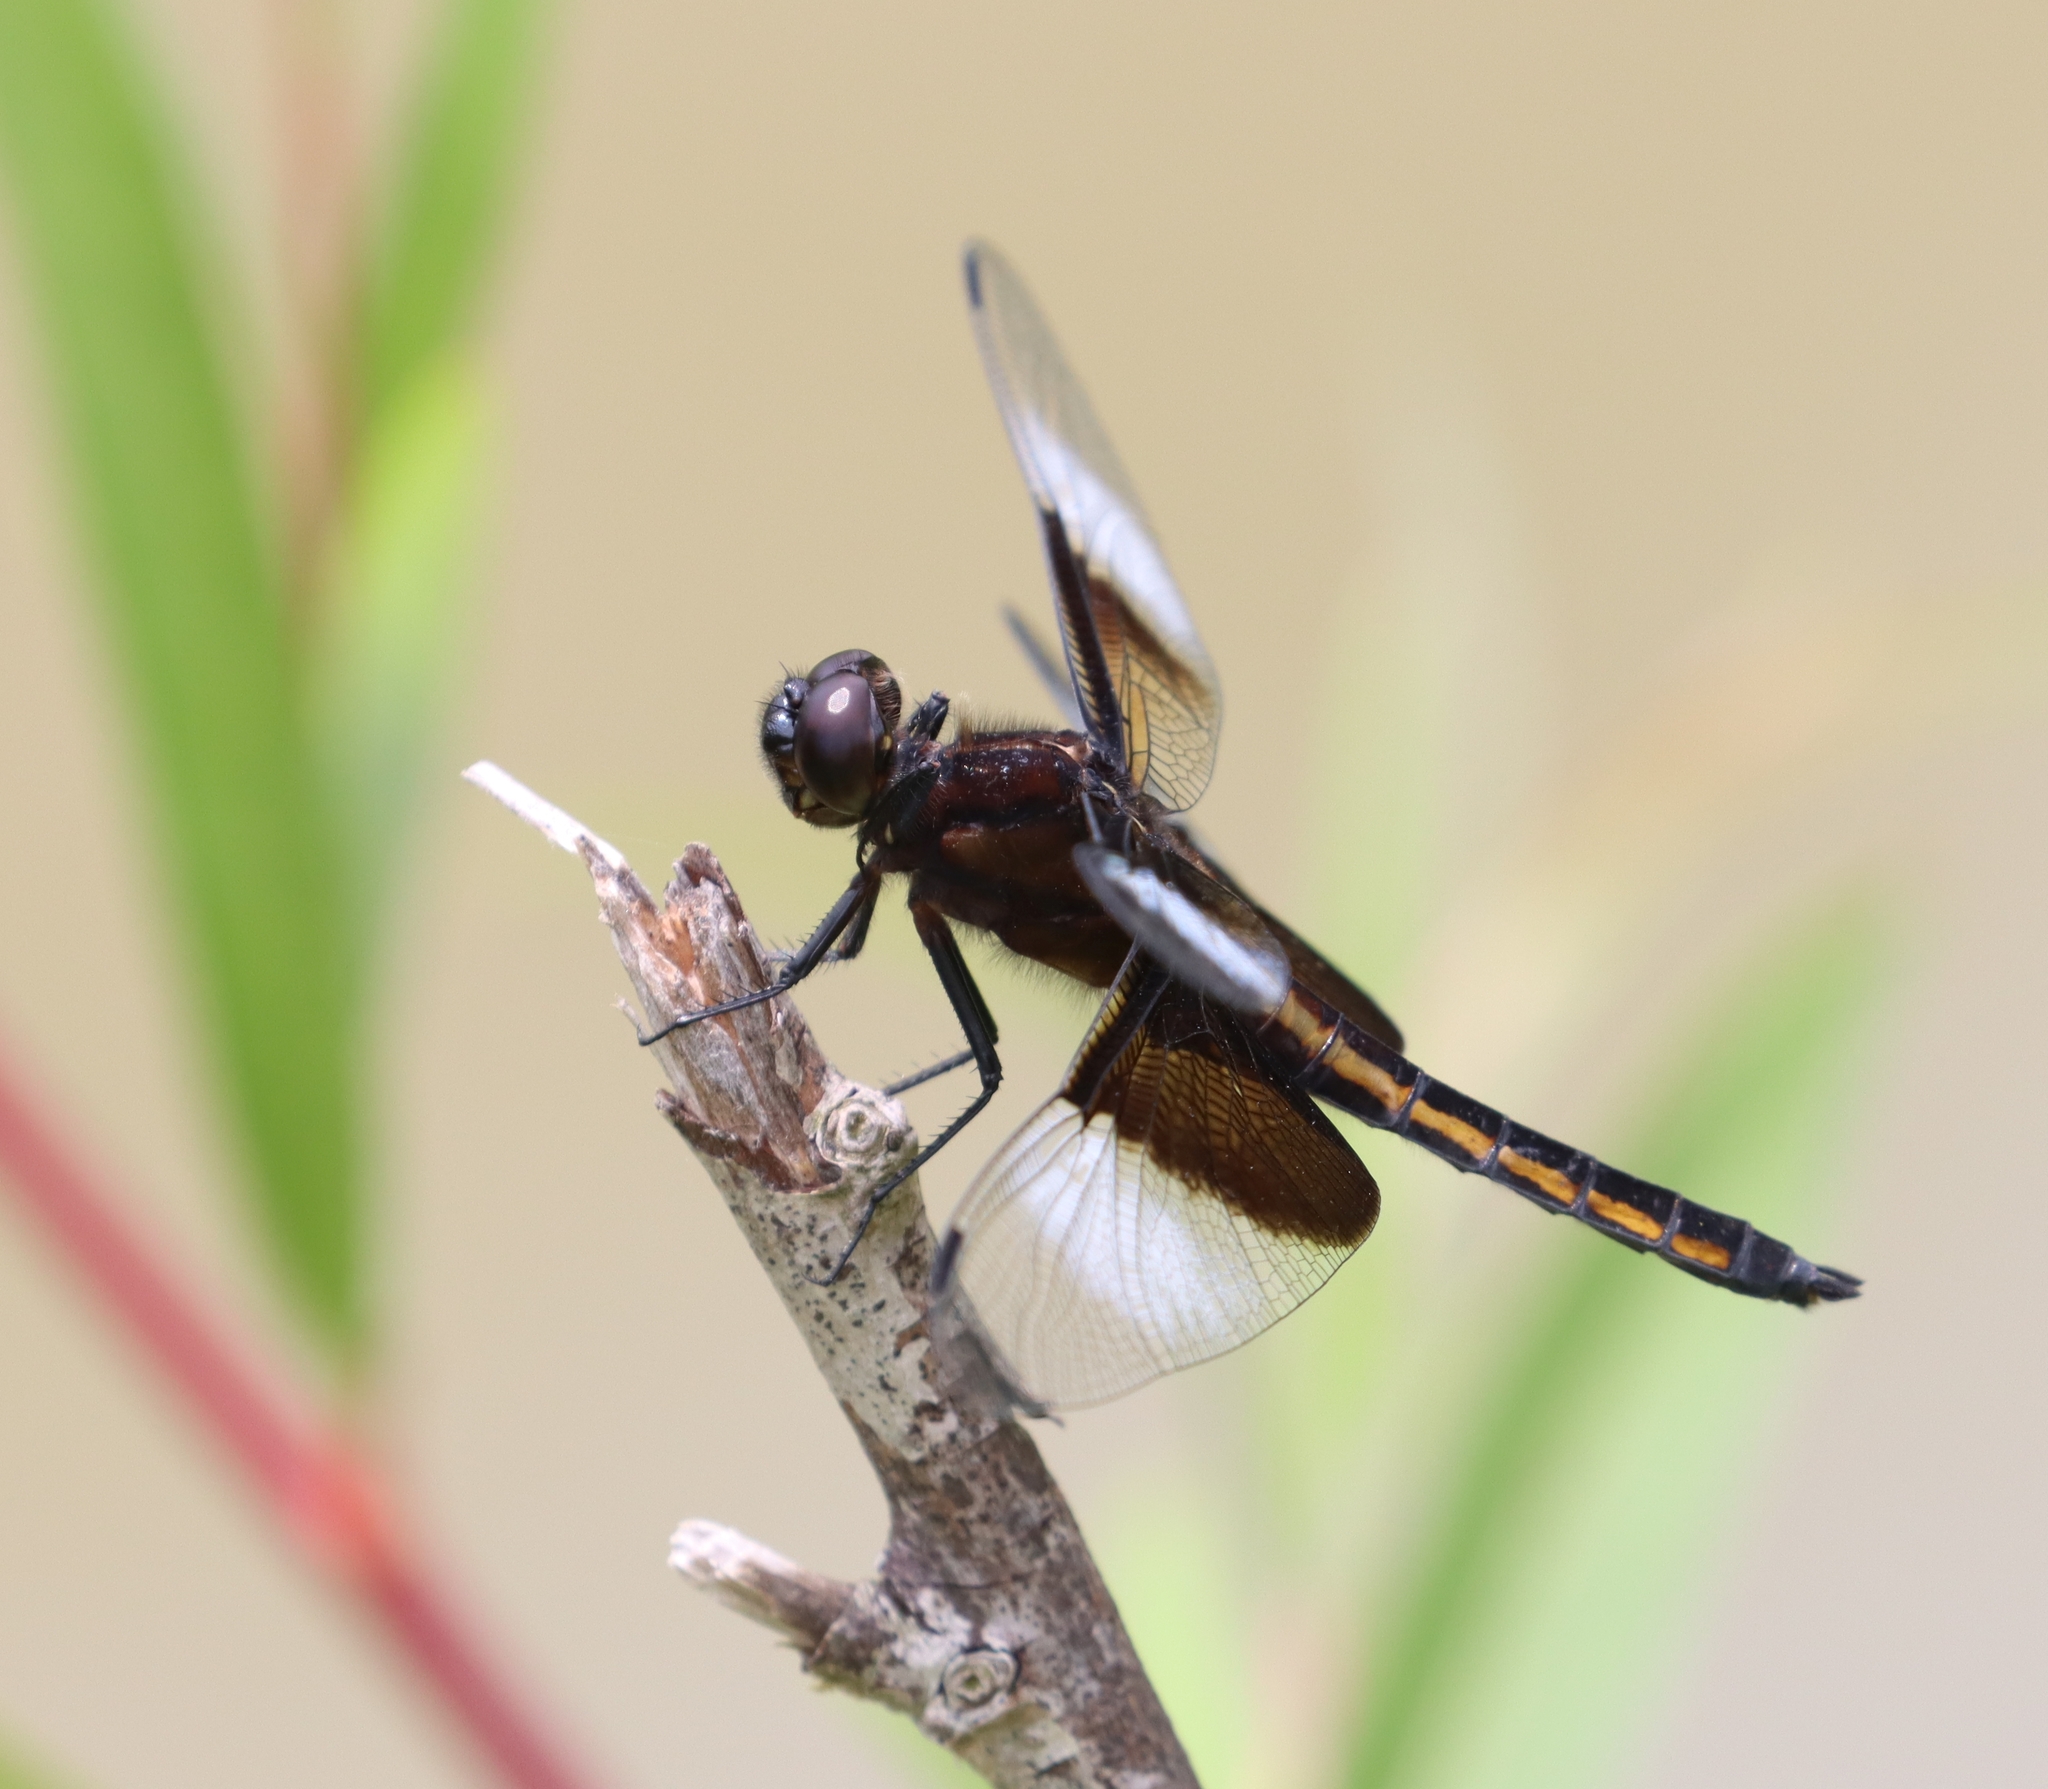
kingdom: Animalia
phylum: Arthropoda
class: Insecta
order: Odonata
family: Libellulidae
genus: Libellula
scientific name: Libellula luctuosa
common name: Widow skimmer
